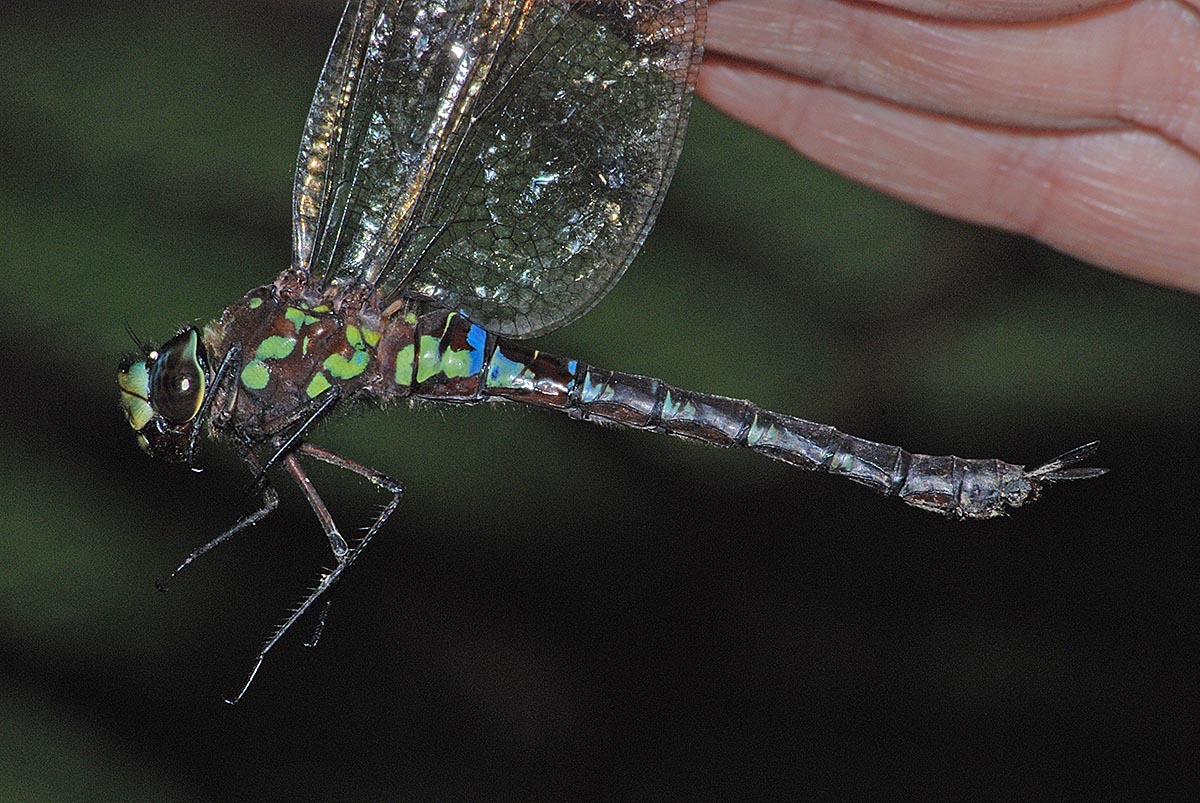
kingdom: Animalia
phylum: Arthropoda
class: Insecta
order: Odonata
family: Aeshnidae
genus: Rhionaeschna
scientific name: Rhionaeschna joannisi
